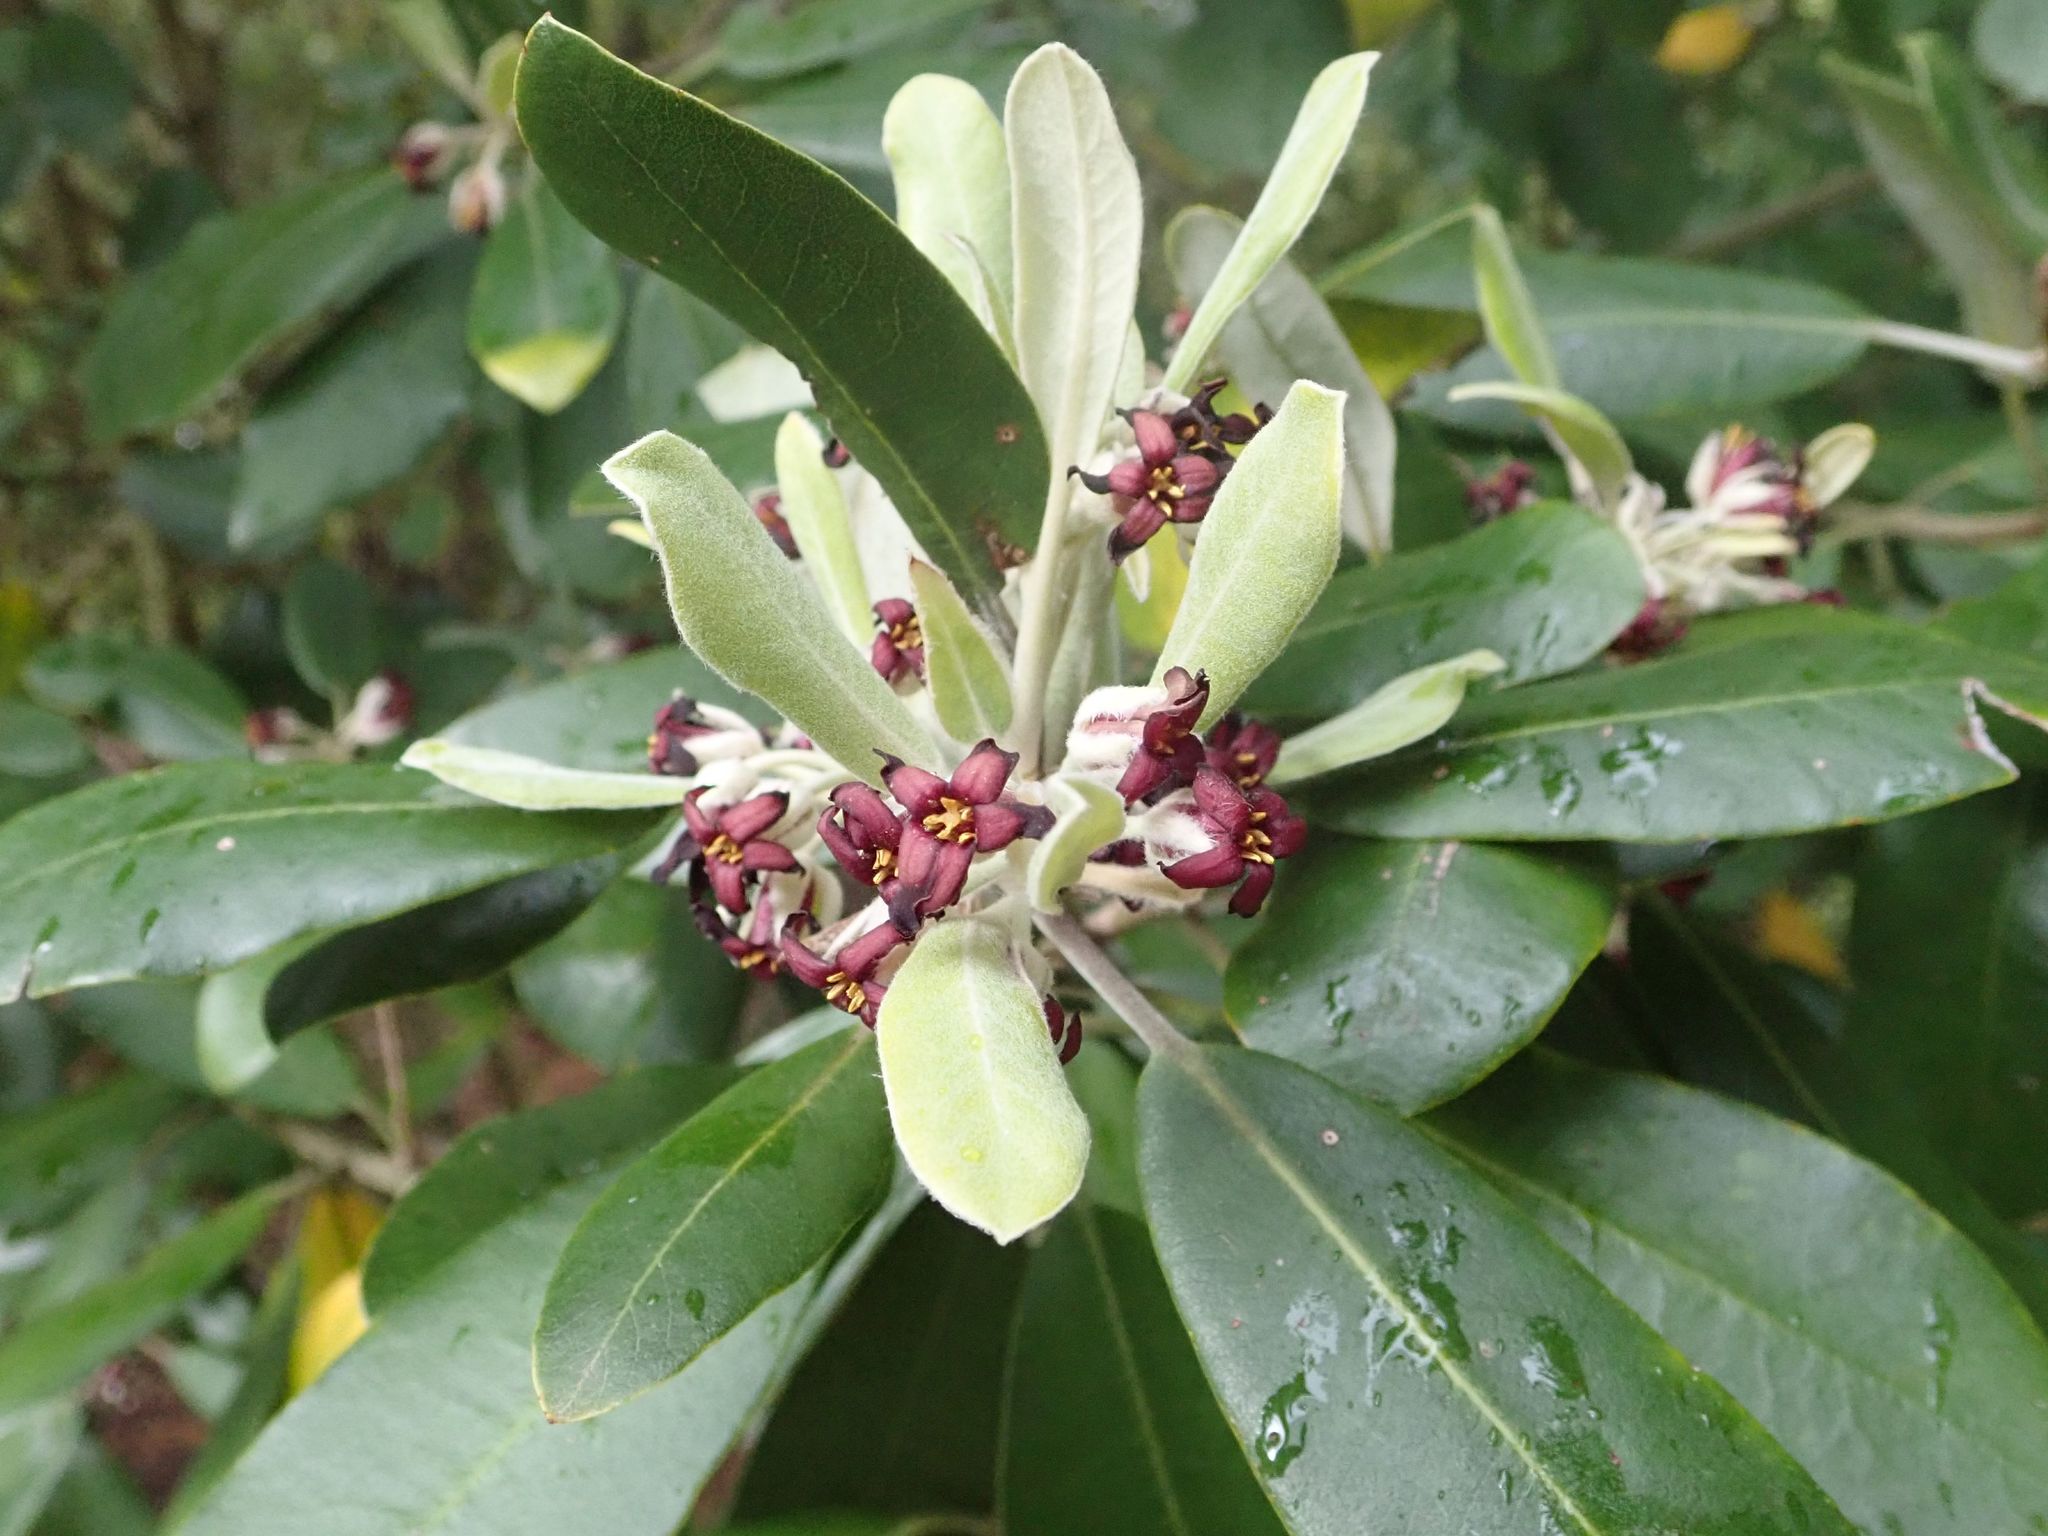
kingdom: Plantae
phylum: Tracheophyta
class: Magnoliopsida
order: Apiales
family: Pittosporaceae
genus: Pittosporum
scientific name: Pittosporum crassifolium
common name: Karo
